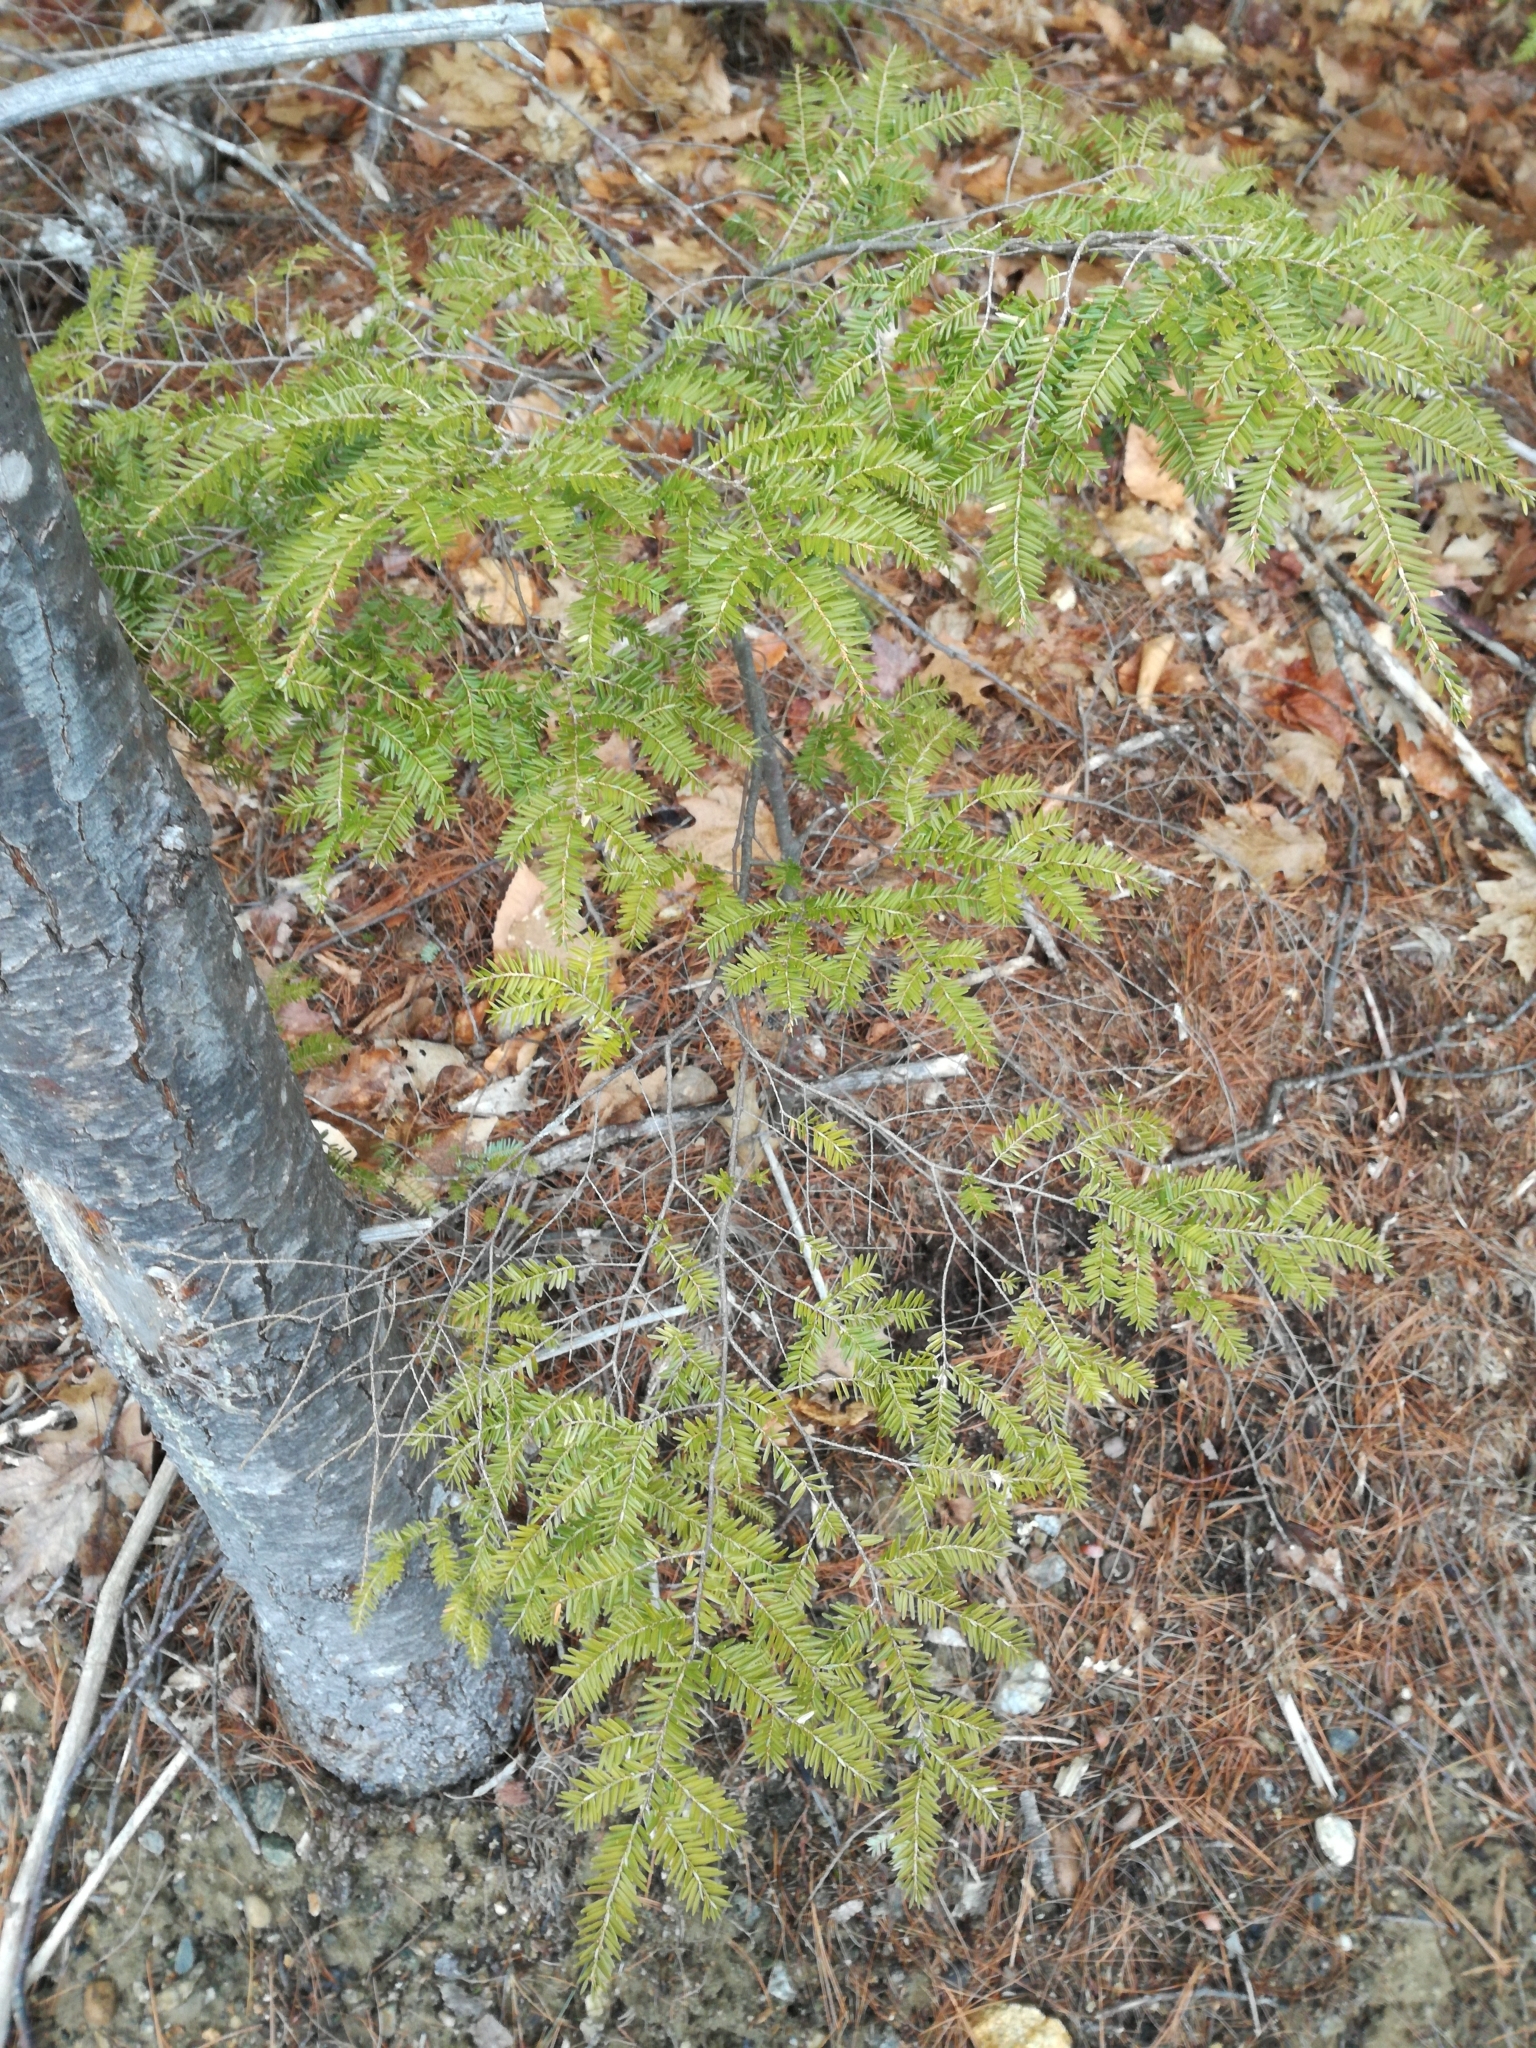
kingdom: Plantae
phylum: Tracheophyta
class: Pinopsida
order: Pinales
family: Pinaceae
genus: Tsuga
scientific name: Tsuga canadensis
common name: Eastern hemlock
